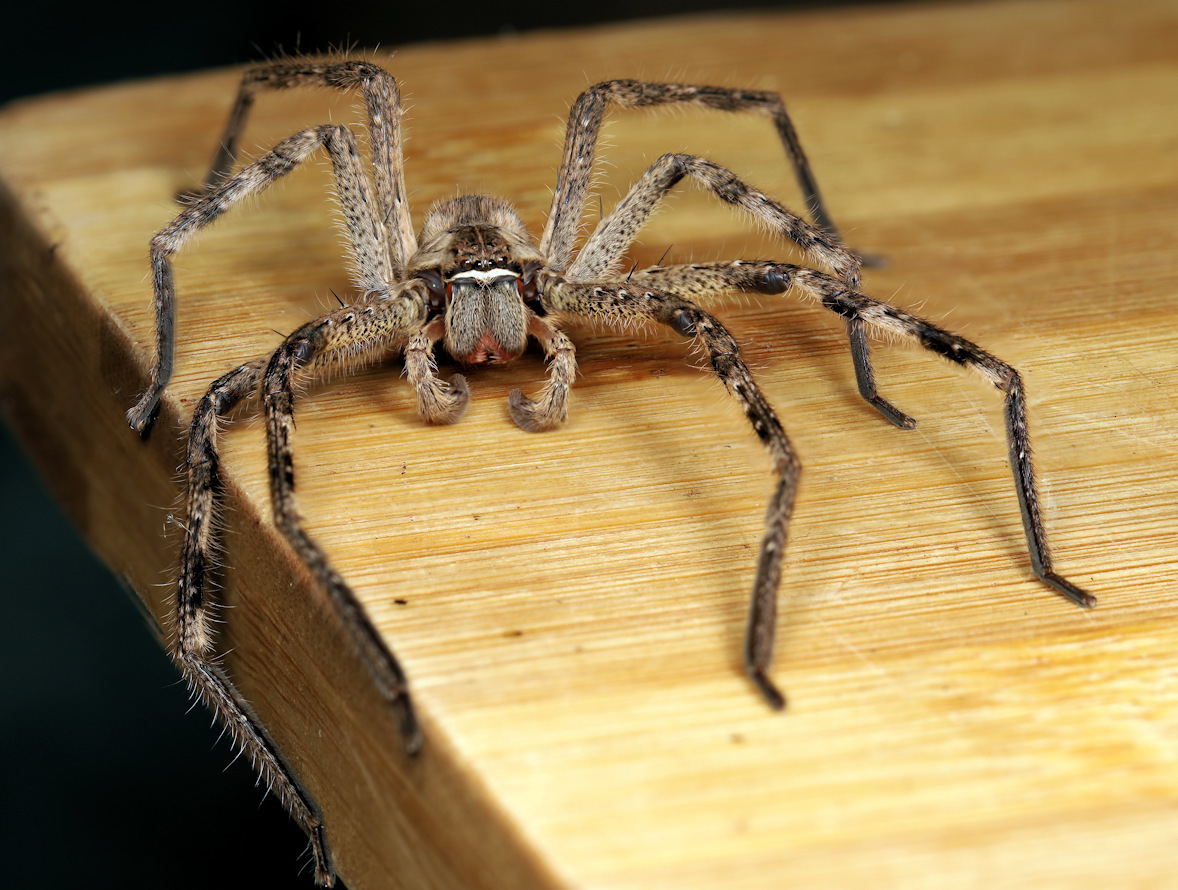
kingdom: Animalia
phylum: Arthropoda
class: Arachnida
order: Araneae
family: Sparassidae
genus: Palystes
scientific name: Palystes superciliosus
